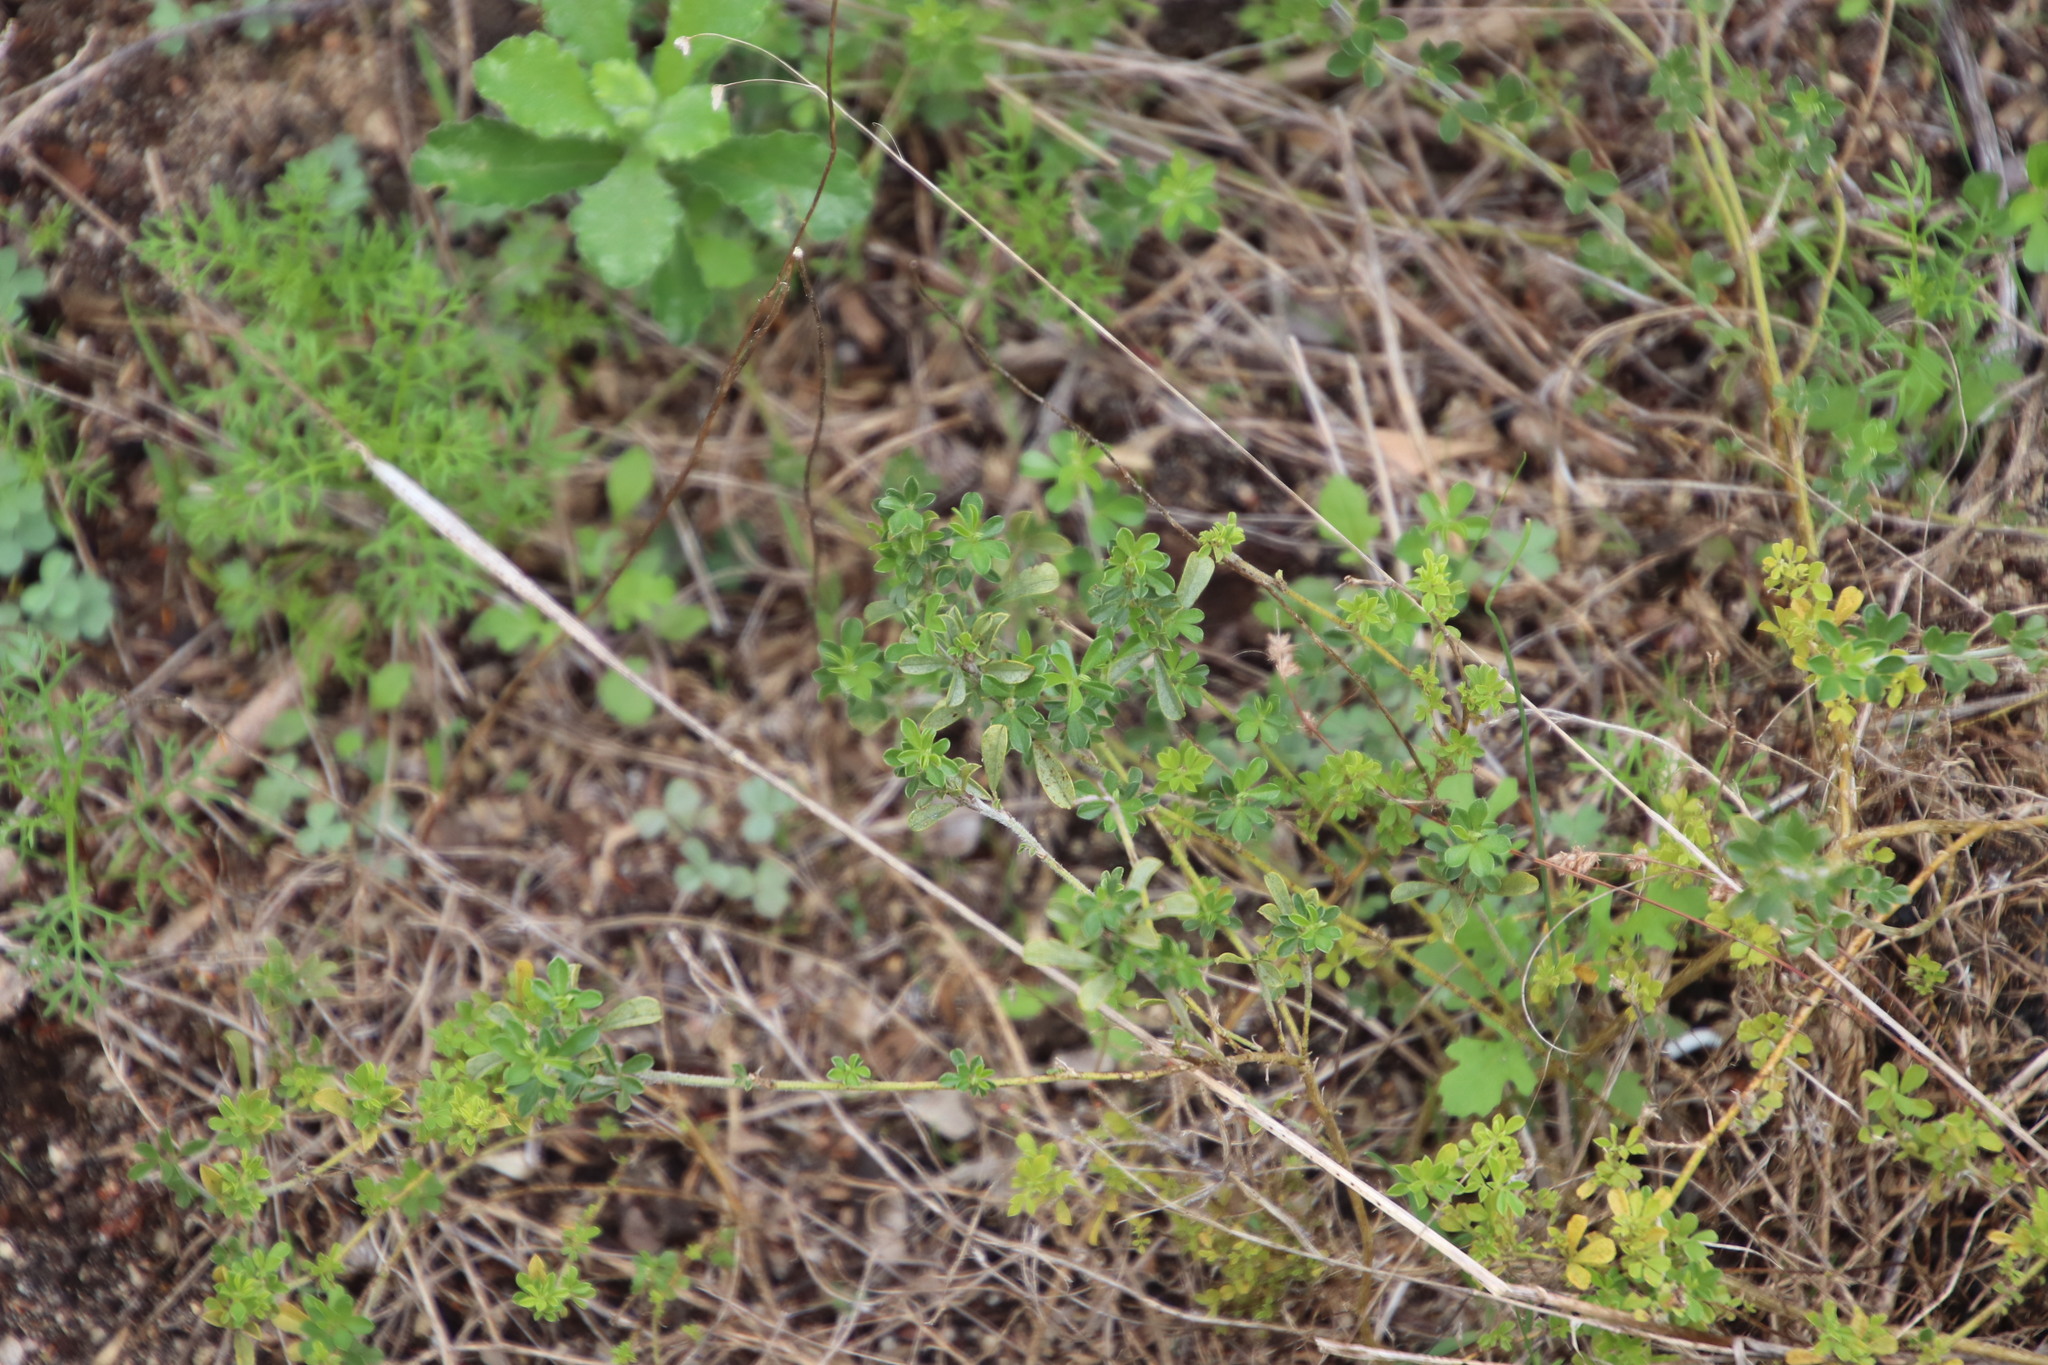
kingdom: Plantae
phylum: Tracheophyta
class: Magnoliopsida
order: Fabales
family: Fabaceae
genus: Psoralea
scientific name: Psoralea
